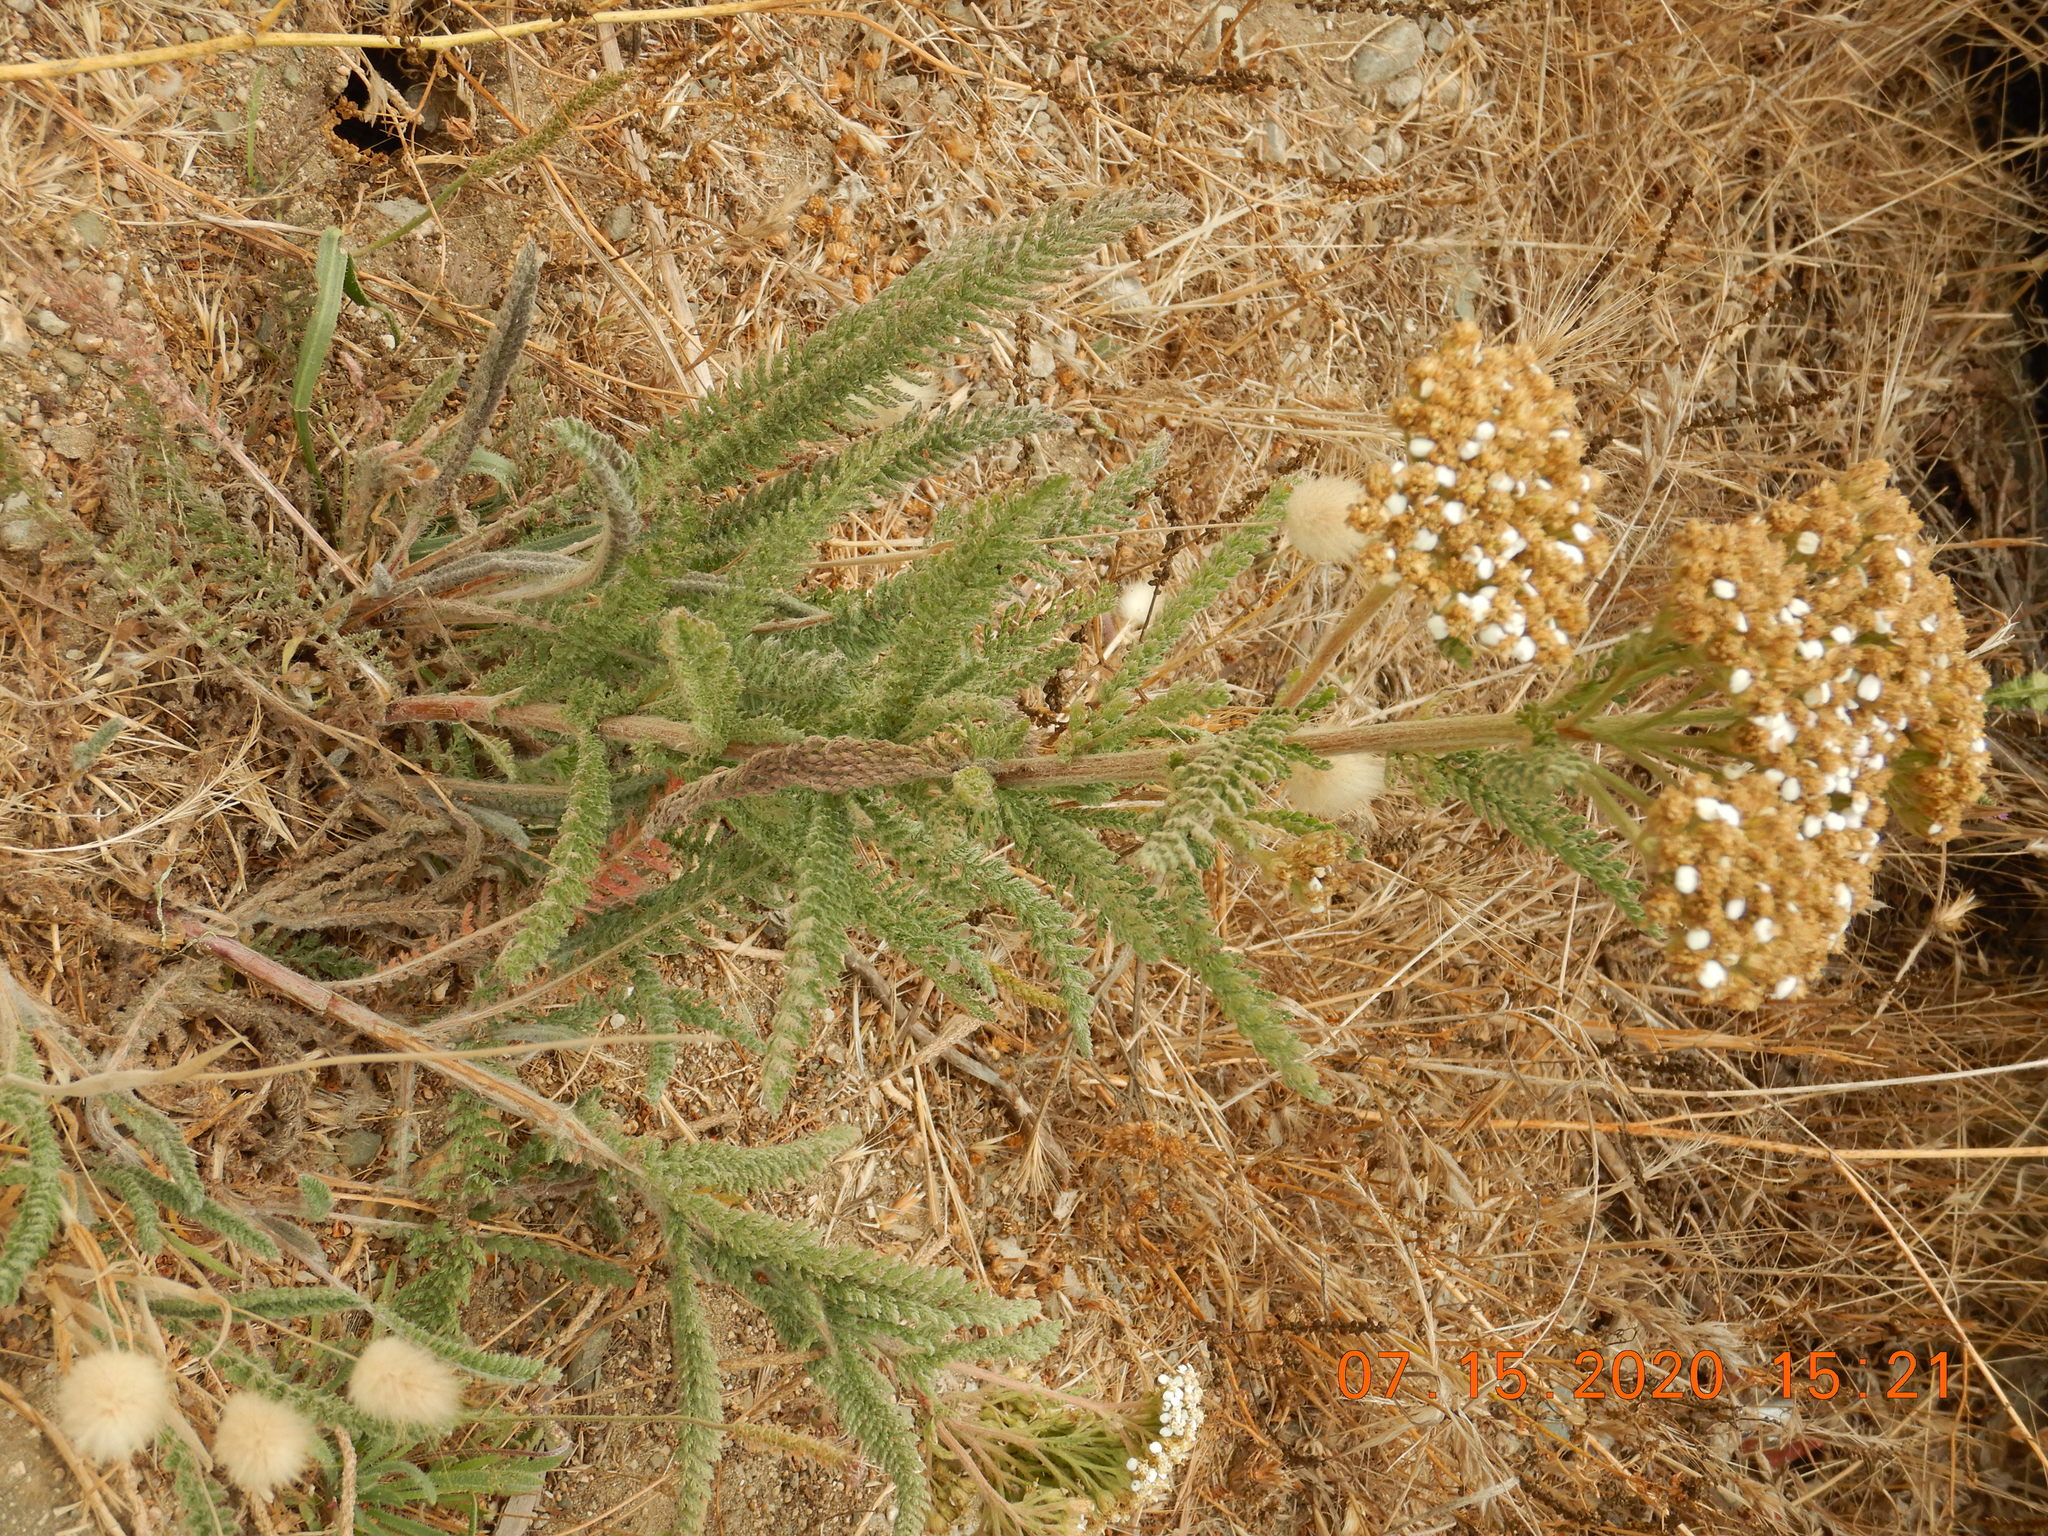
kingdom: Plantae
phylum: Tracheophyta
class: Magnoliopsida
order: Asterales
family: Asteraceae
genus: Achillea
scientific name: Achillea millefolium
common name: Yarrow
